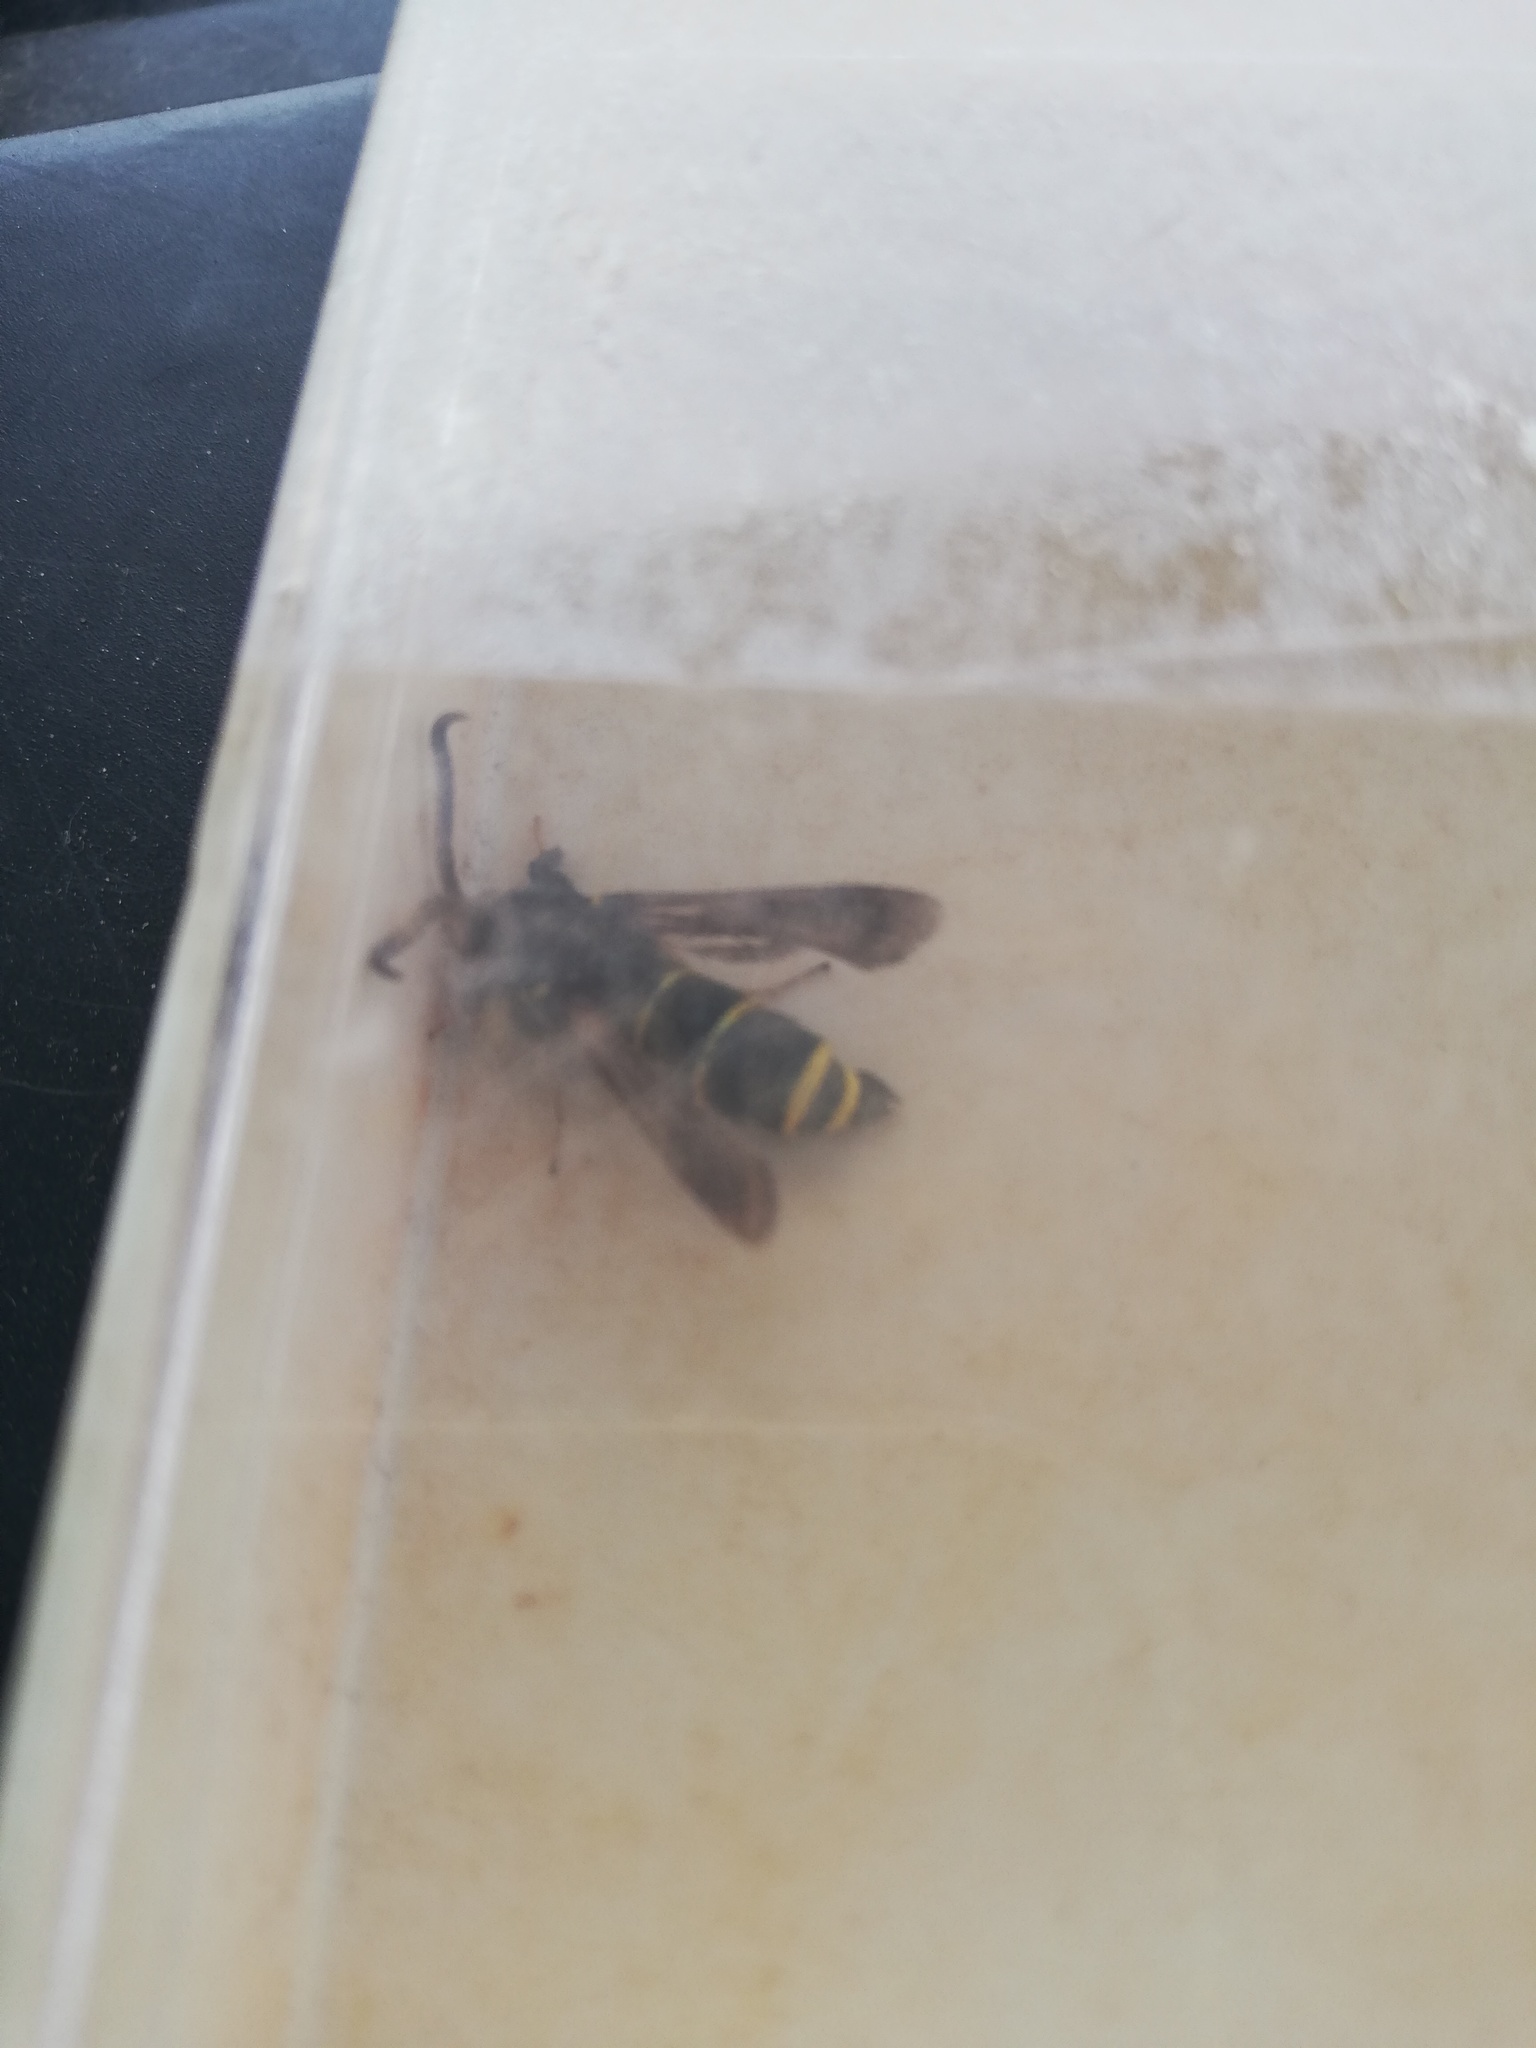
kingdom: Animalia
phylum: Arthropoda
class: Insecta
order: Lepidoptera
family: Sesiidae
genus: Paranthrene
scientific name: Paranthrene tabaniformis
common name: Dusky clearwing
